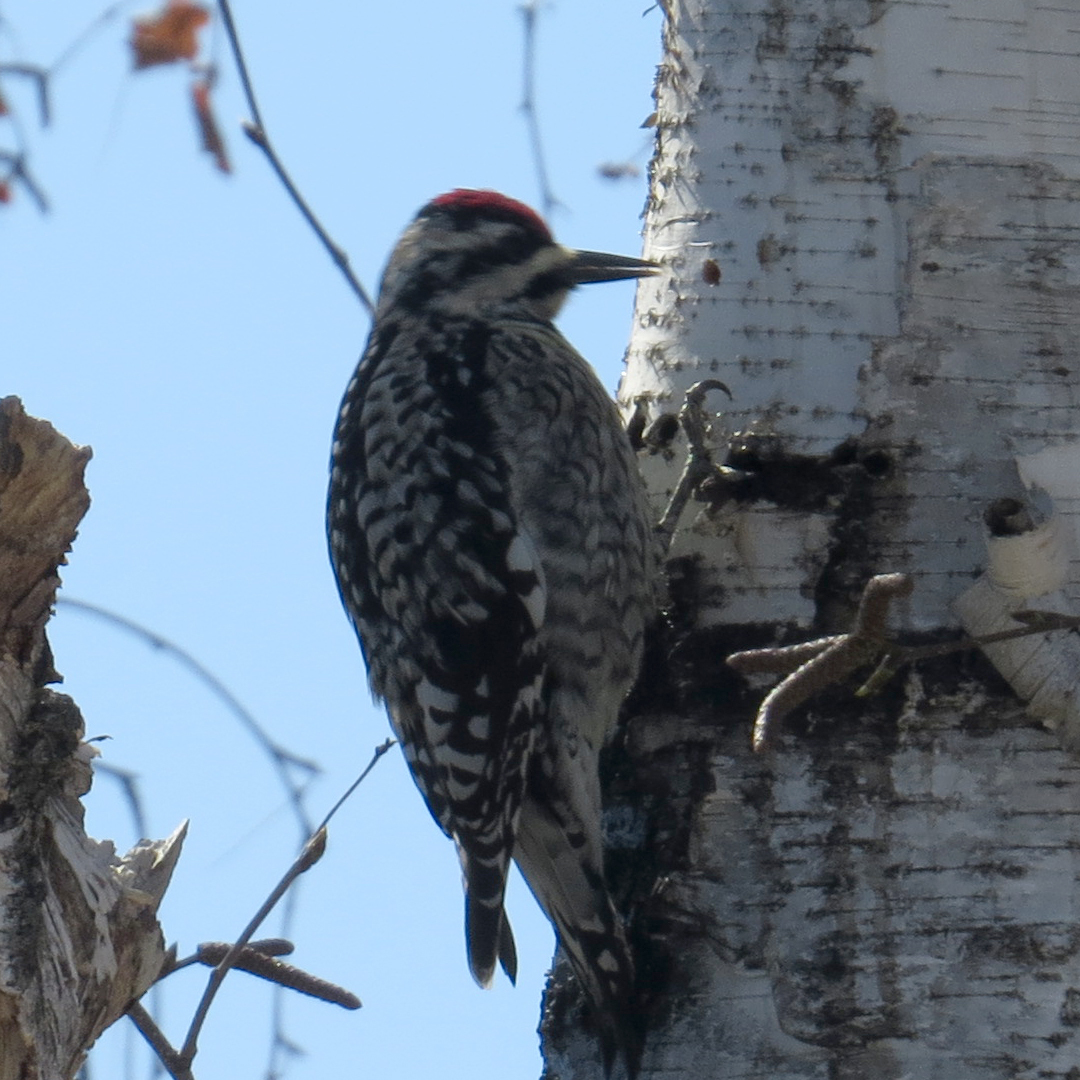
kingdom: Animalia
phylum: Chordata
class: Aves
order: Piciformes
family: Picidae
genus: Sphyrapicus
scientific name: Sphyrapicus varius
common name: Yellow-bellied sapsucker
